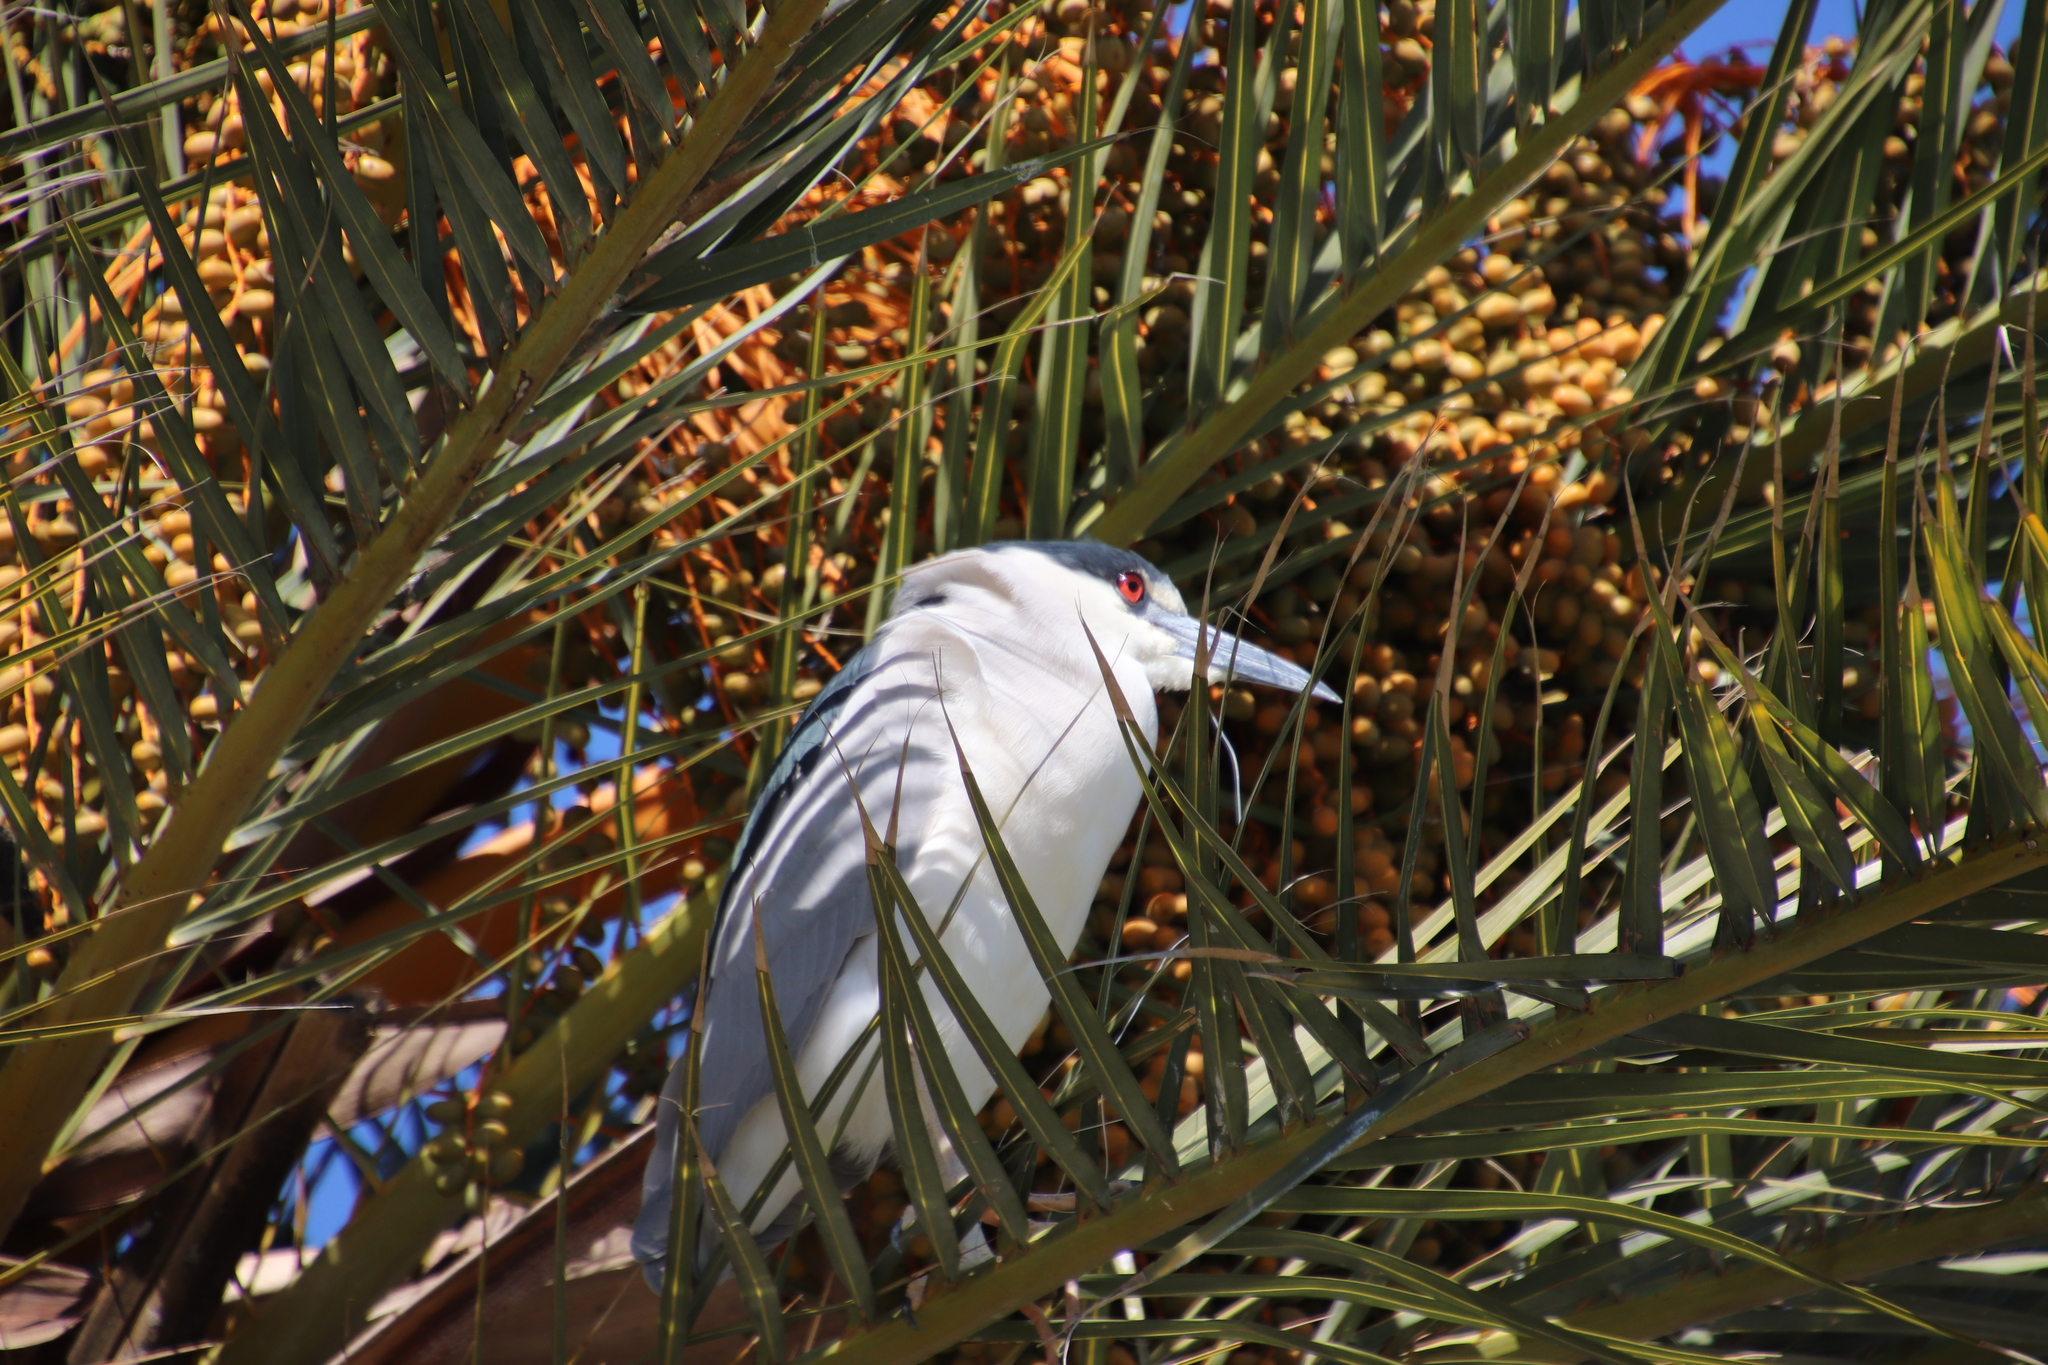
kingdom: Animalia
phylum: Chordata
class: Aves
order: Pelecaniformes
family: Ardeidae
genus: Nycticorax
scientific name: Nycticorax nycticorax
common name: Black-crowned night heron
